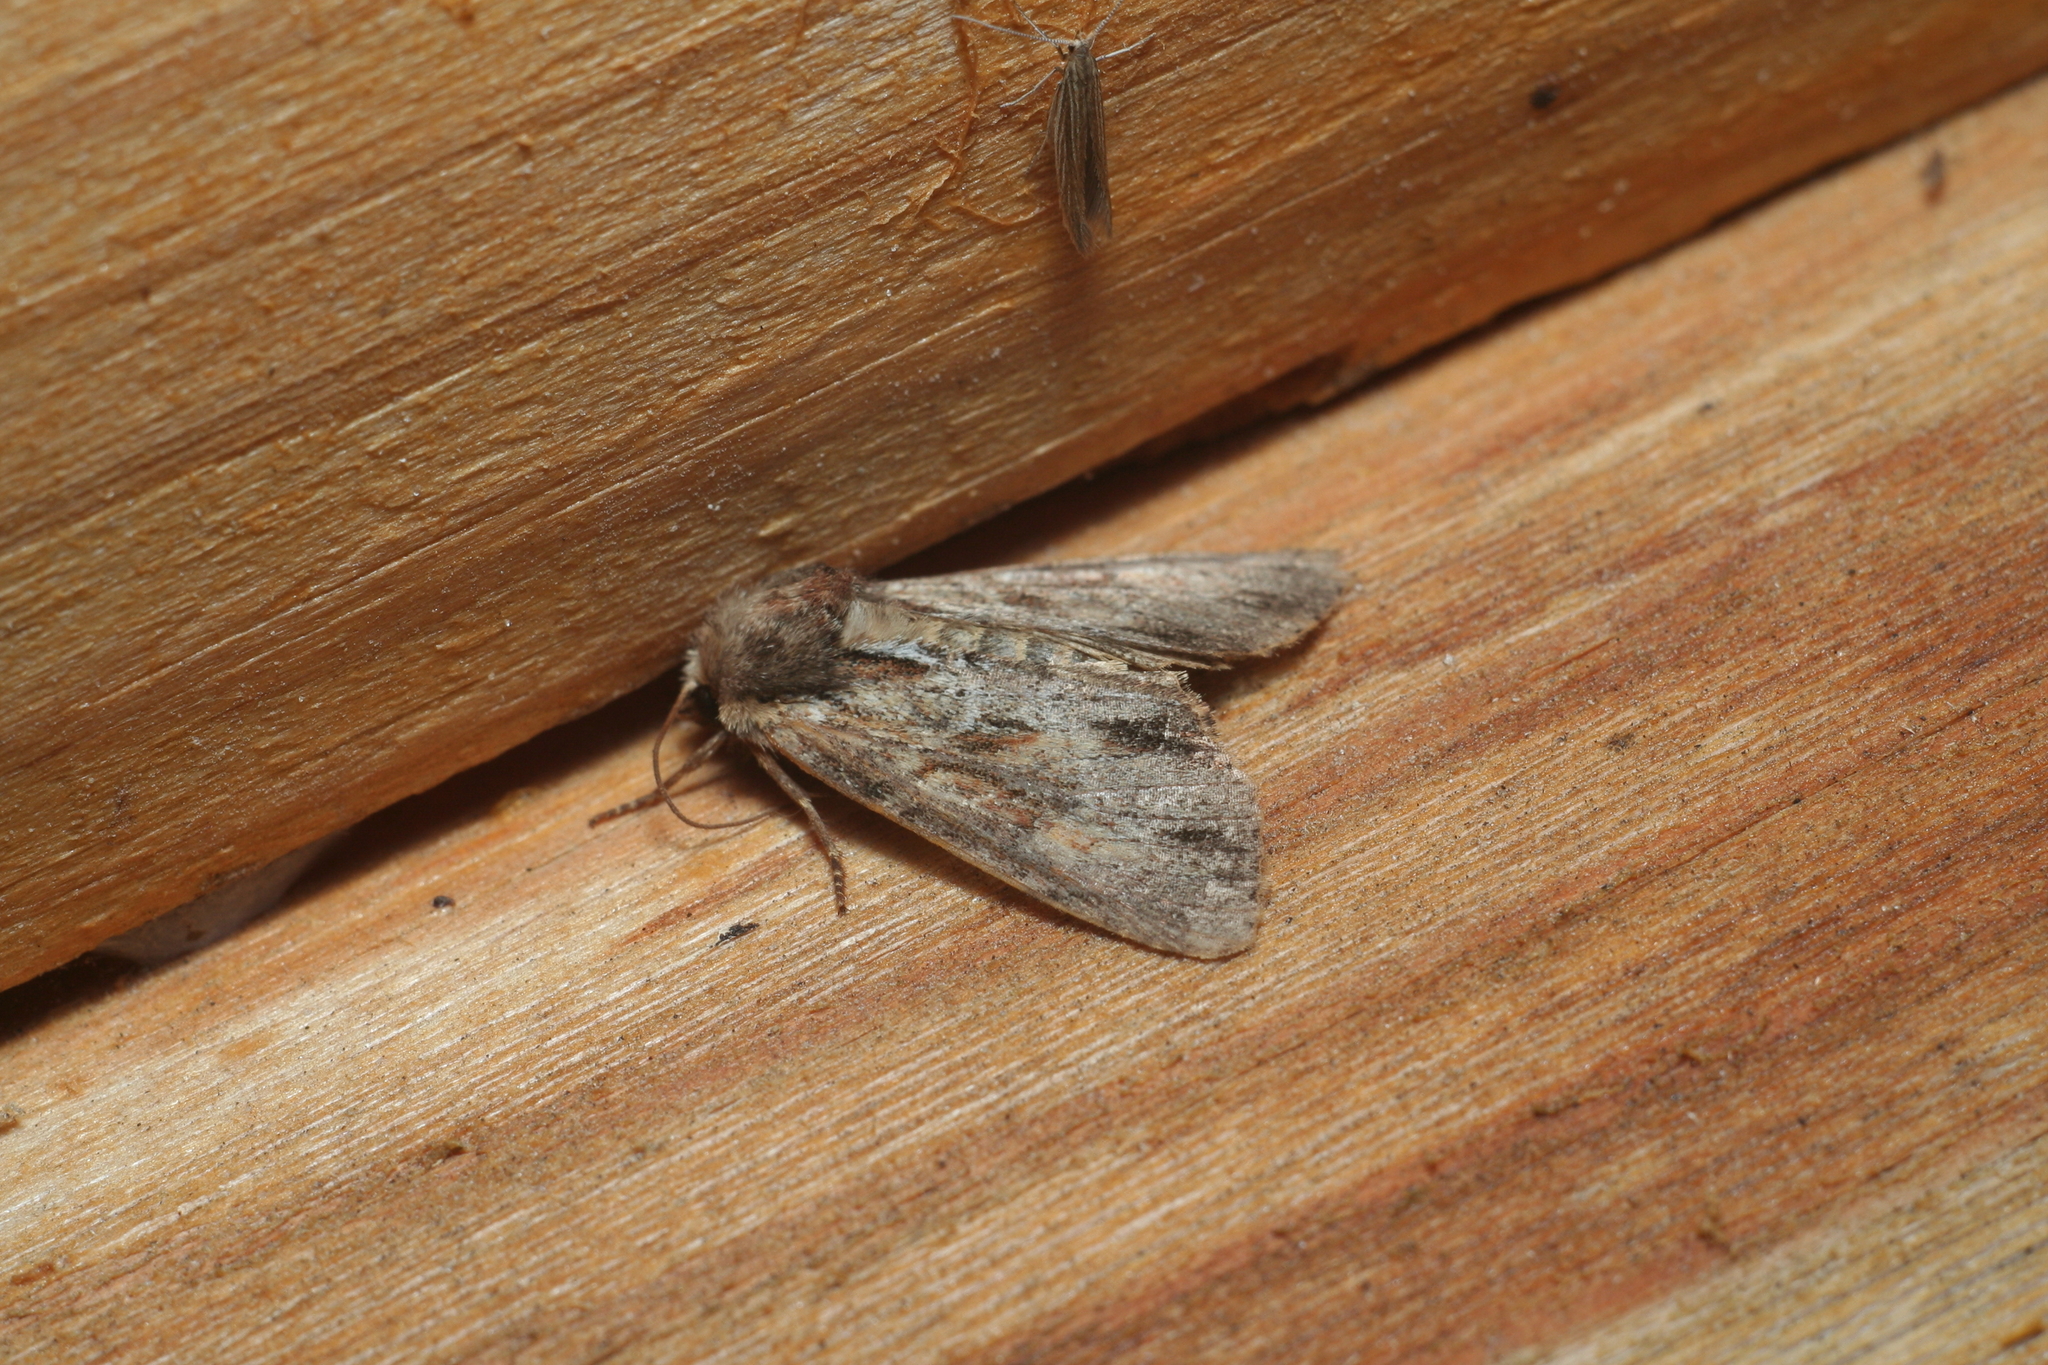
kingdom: Animalia
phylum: Arthropoda
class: Insecta
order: Lepidoptera
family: Noctuidae
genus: Apamea
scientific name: Apamea crenata
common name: Clouded-bordered brindle
